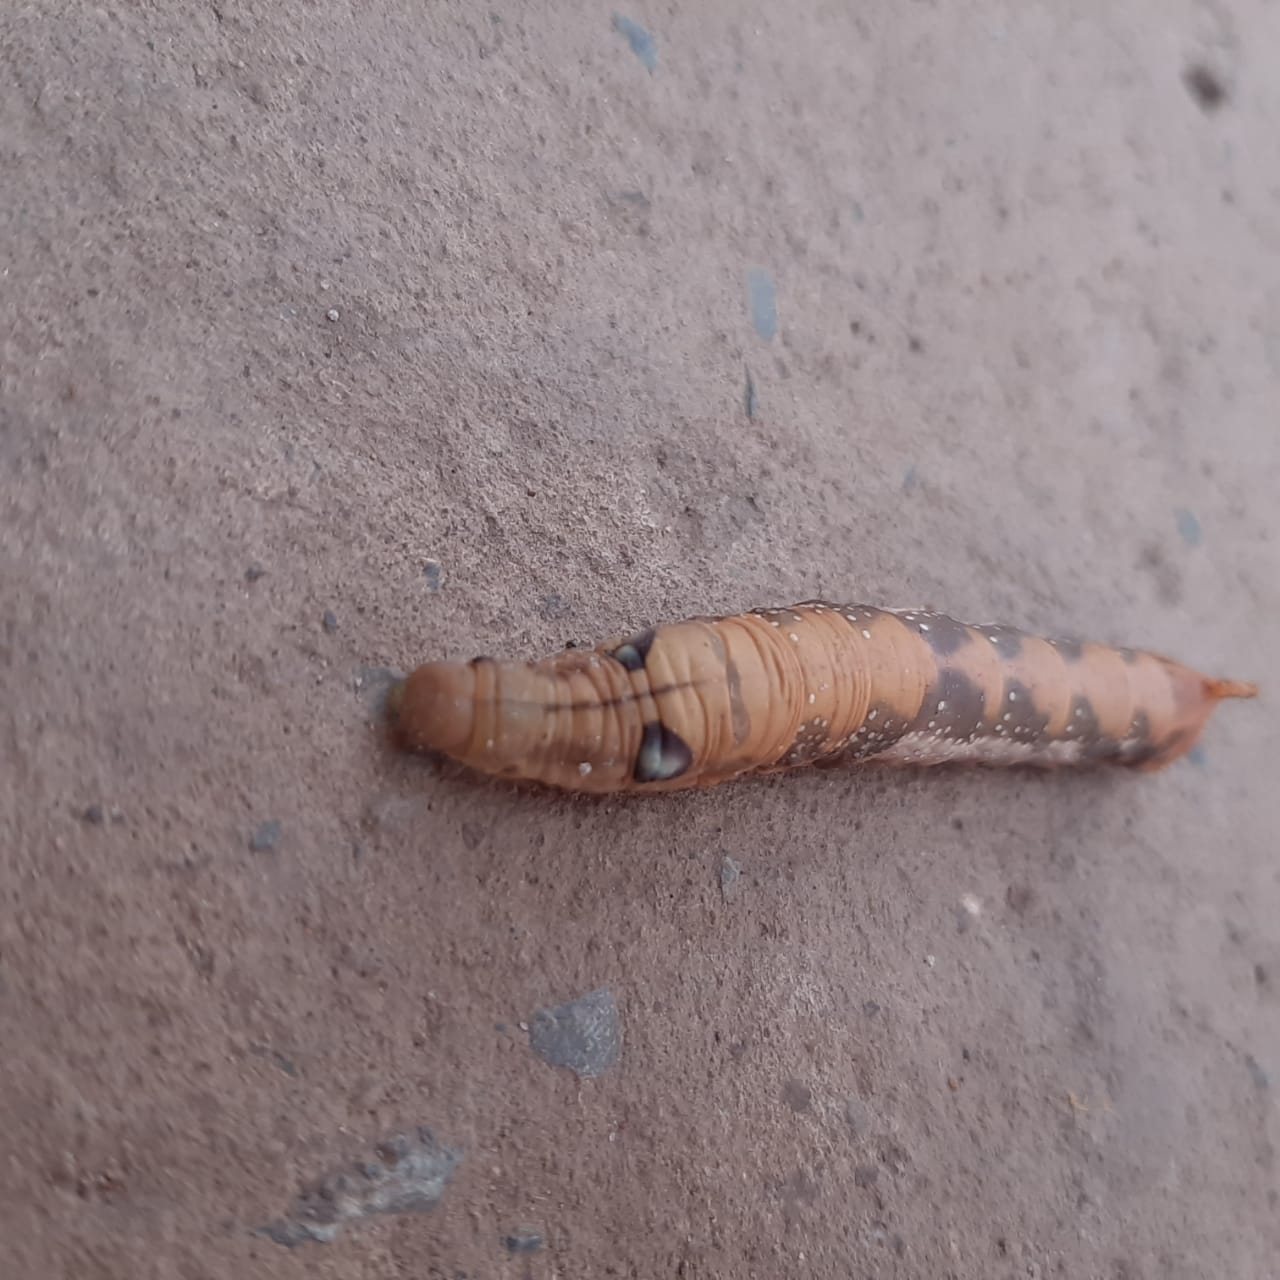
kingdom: Animalia
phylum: Arthropoda
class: Insecta
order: Lepidoptera
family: Sphingidae
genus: Daphnis
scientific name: Daphnis nerii
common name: Oleander hawk-moth
